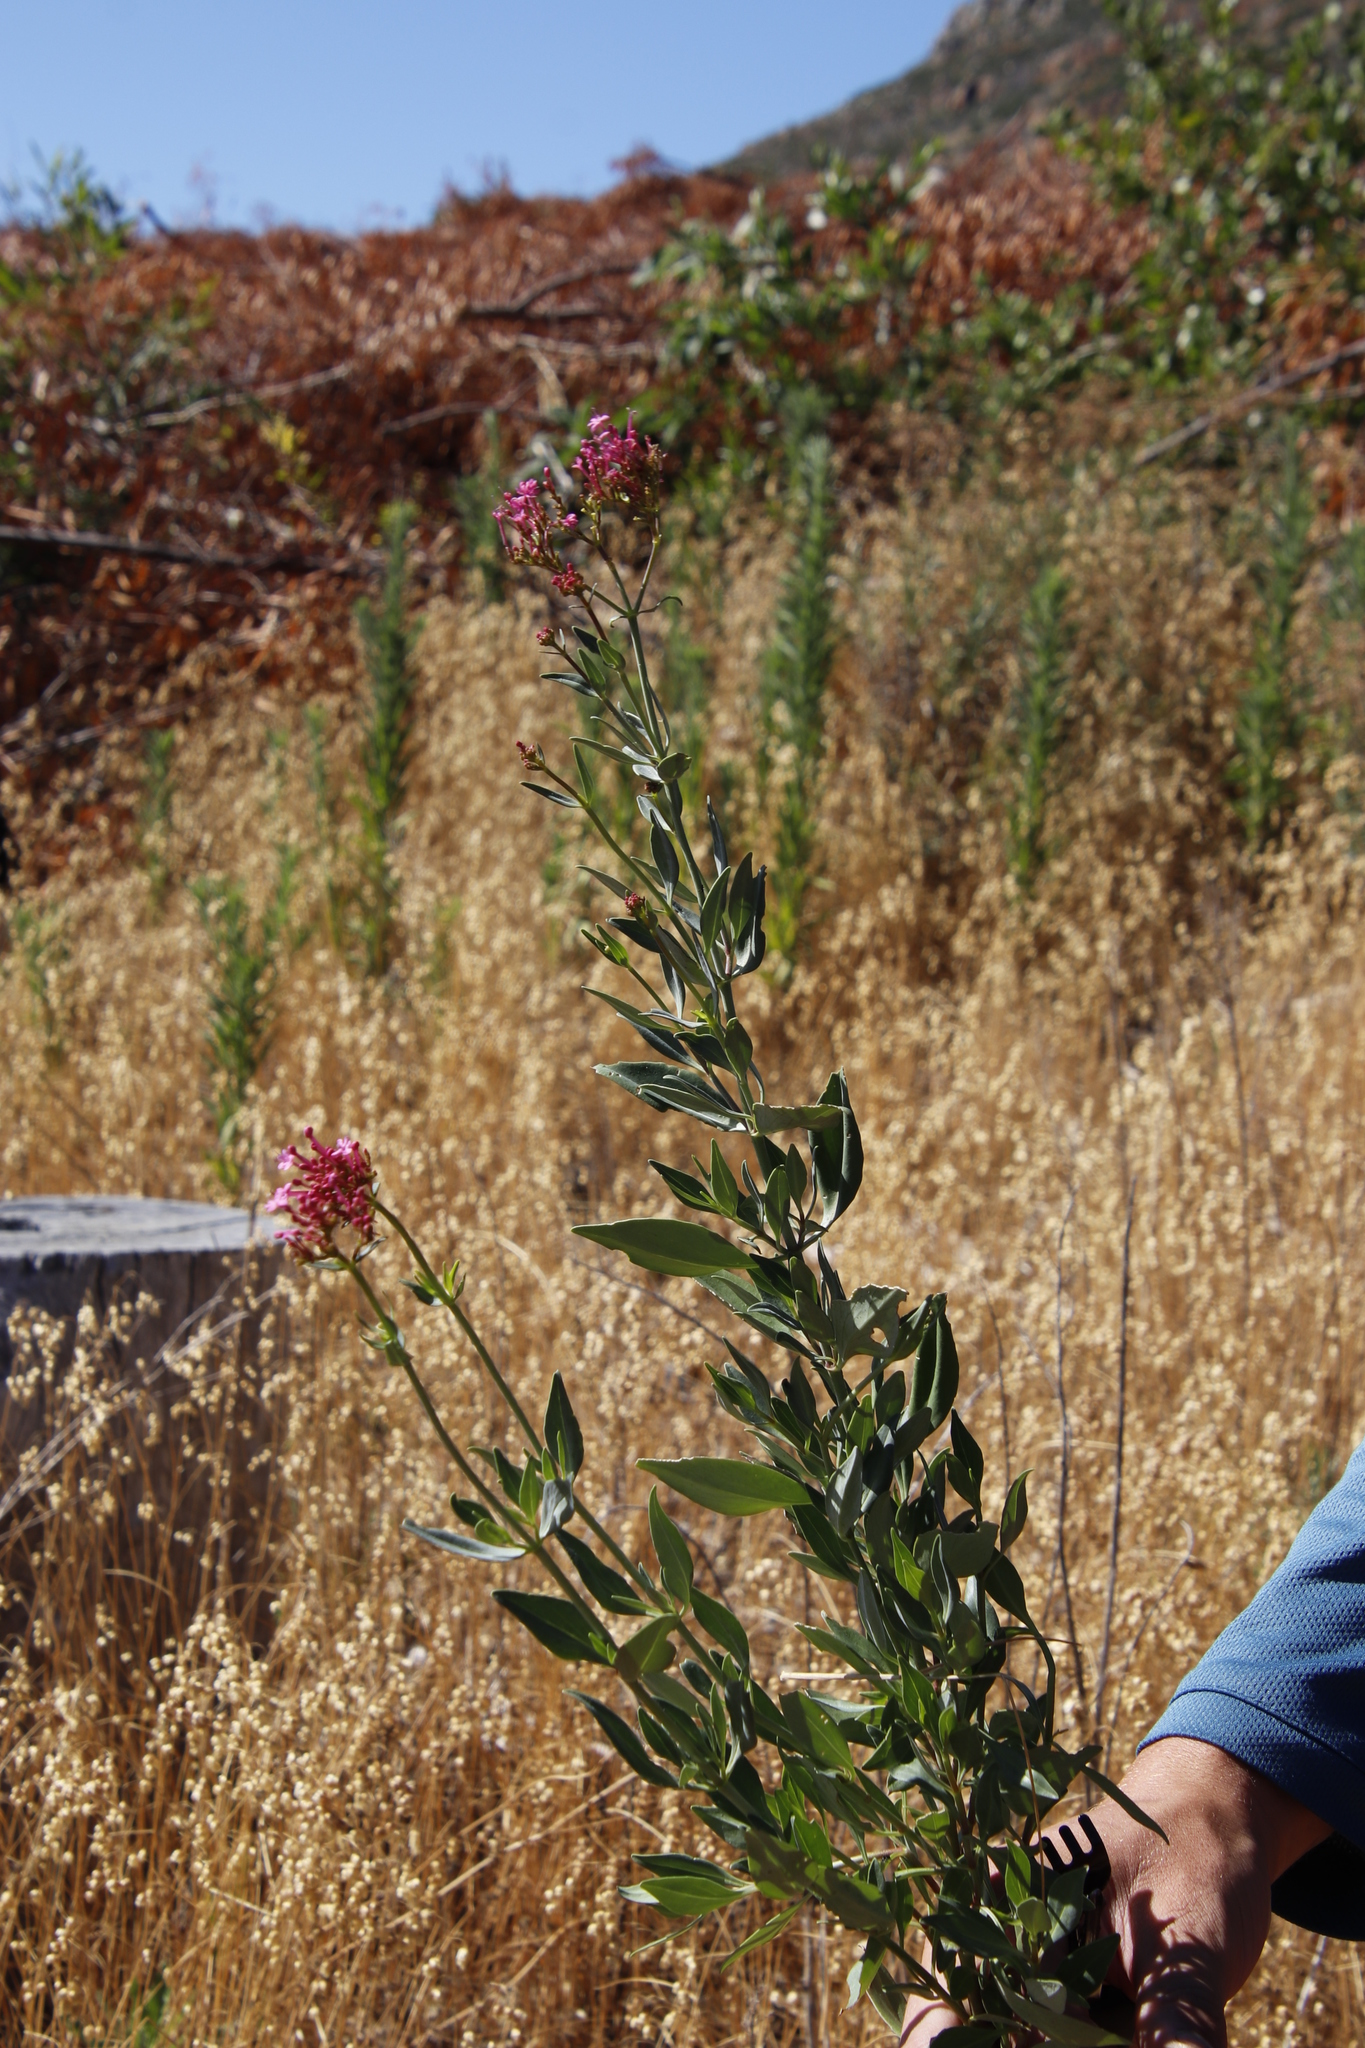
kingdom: Plantae
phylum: Tracheophyta
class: Magnoliopsida
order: Dipsacales
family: Caprifoliaceae
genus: Centranthus
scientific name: Centranthus ruber
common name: Red valerian
